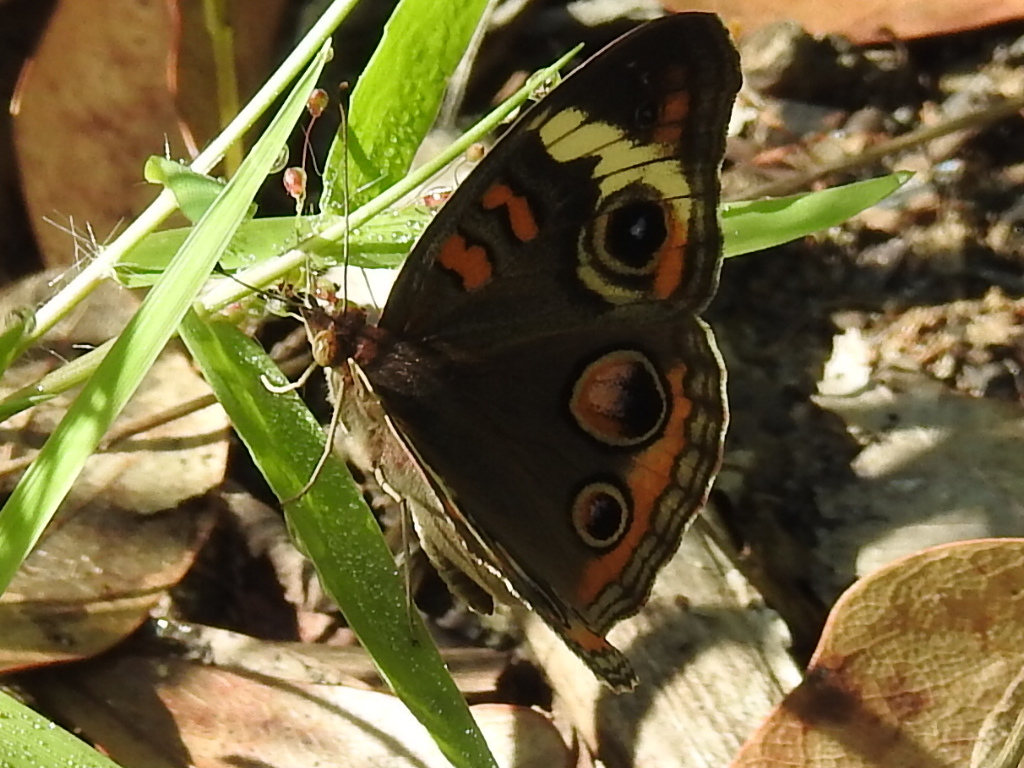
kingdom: Animalia
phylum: Arthropoda
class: Insecta
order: Lepidoptera
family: Nymphalidae
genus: Junonia
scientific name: Junonia coenia
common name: Common buckeye
